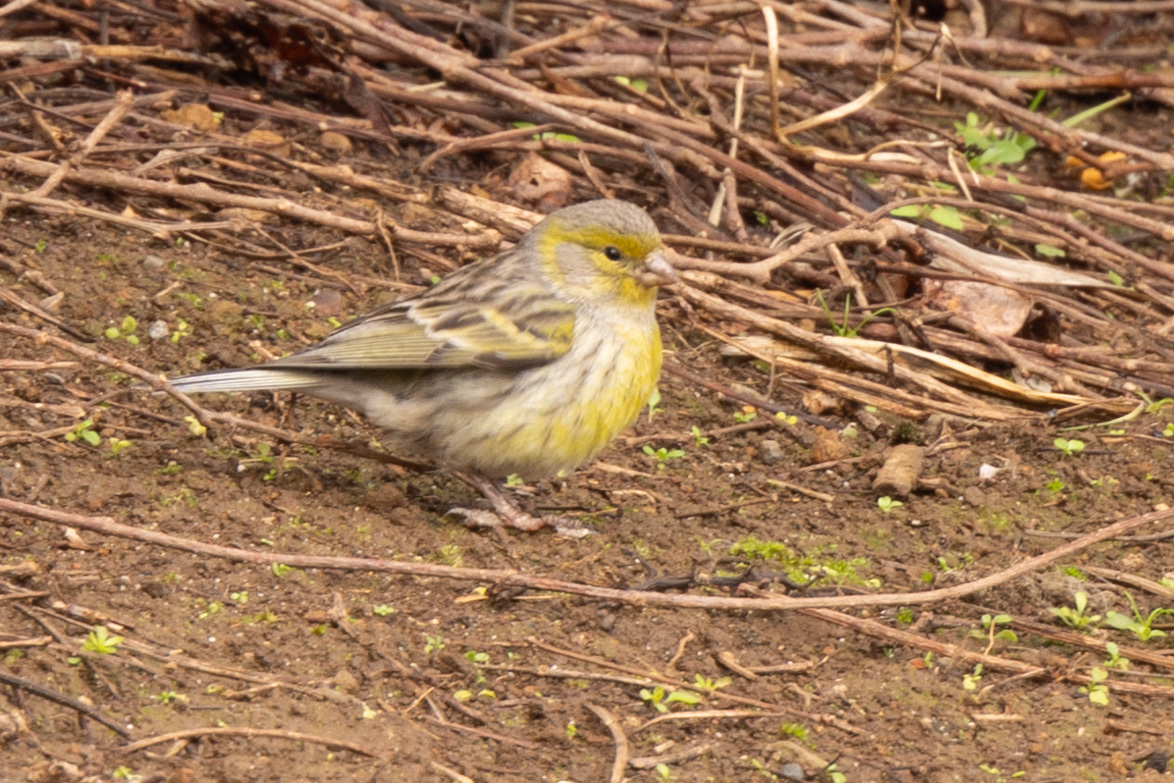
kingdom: Animalia
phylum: Chordata
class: Aves
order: Passeriformes
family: Fringillidae
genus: Serinus
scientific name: Serinus canaria
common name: Atlantic canary
